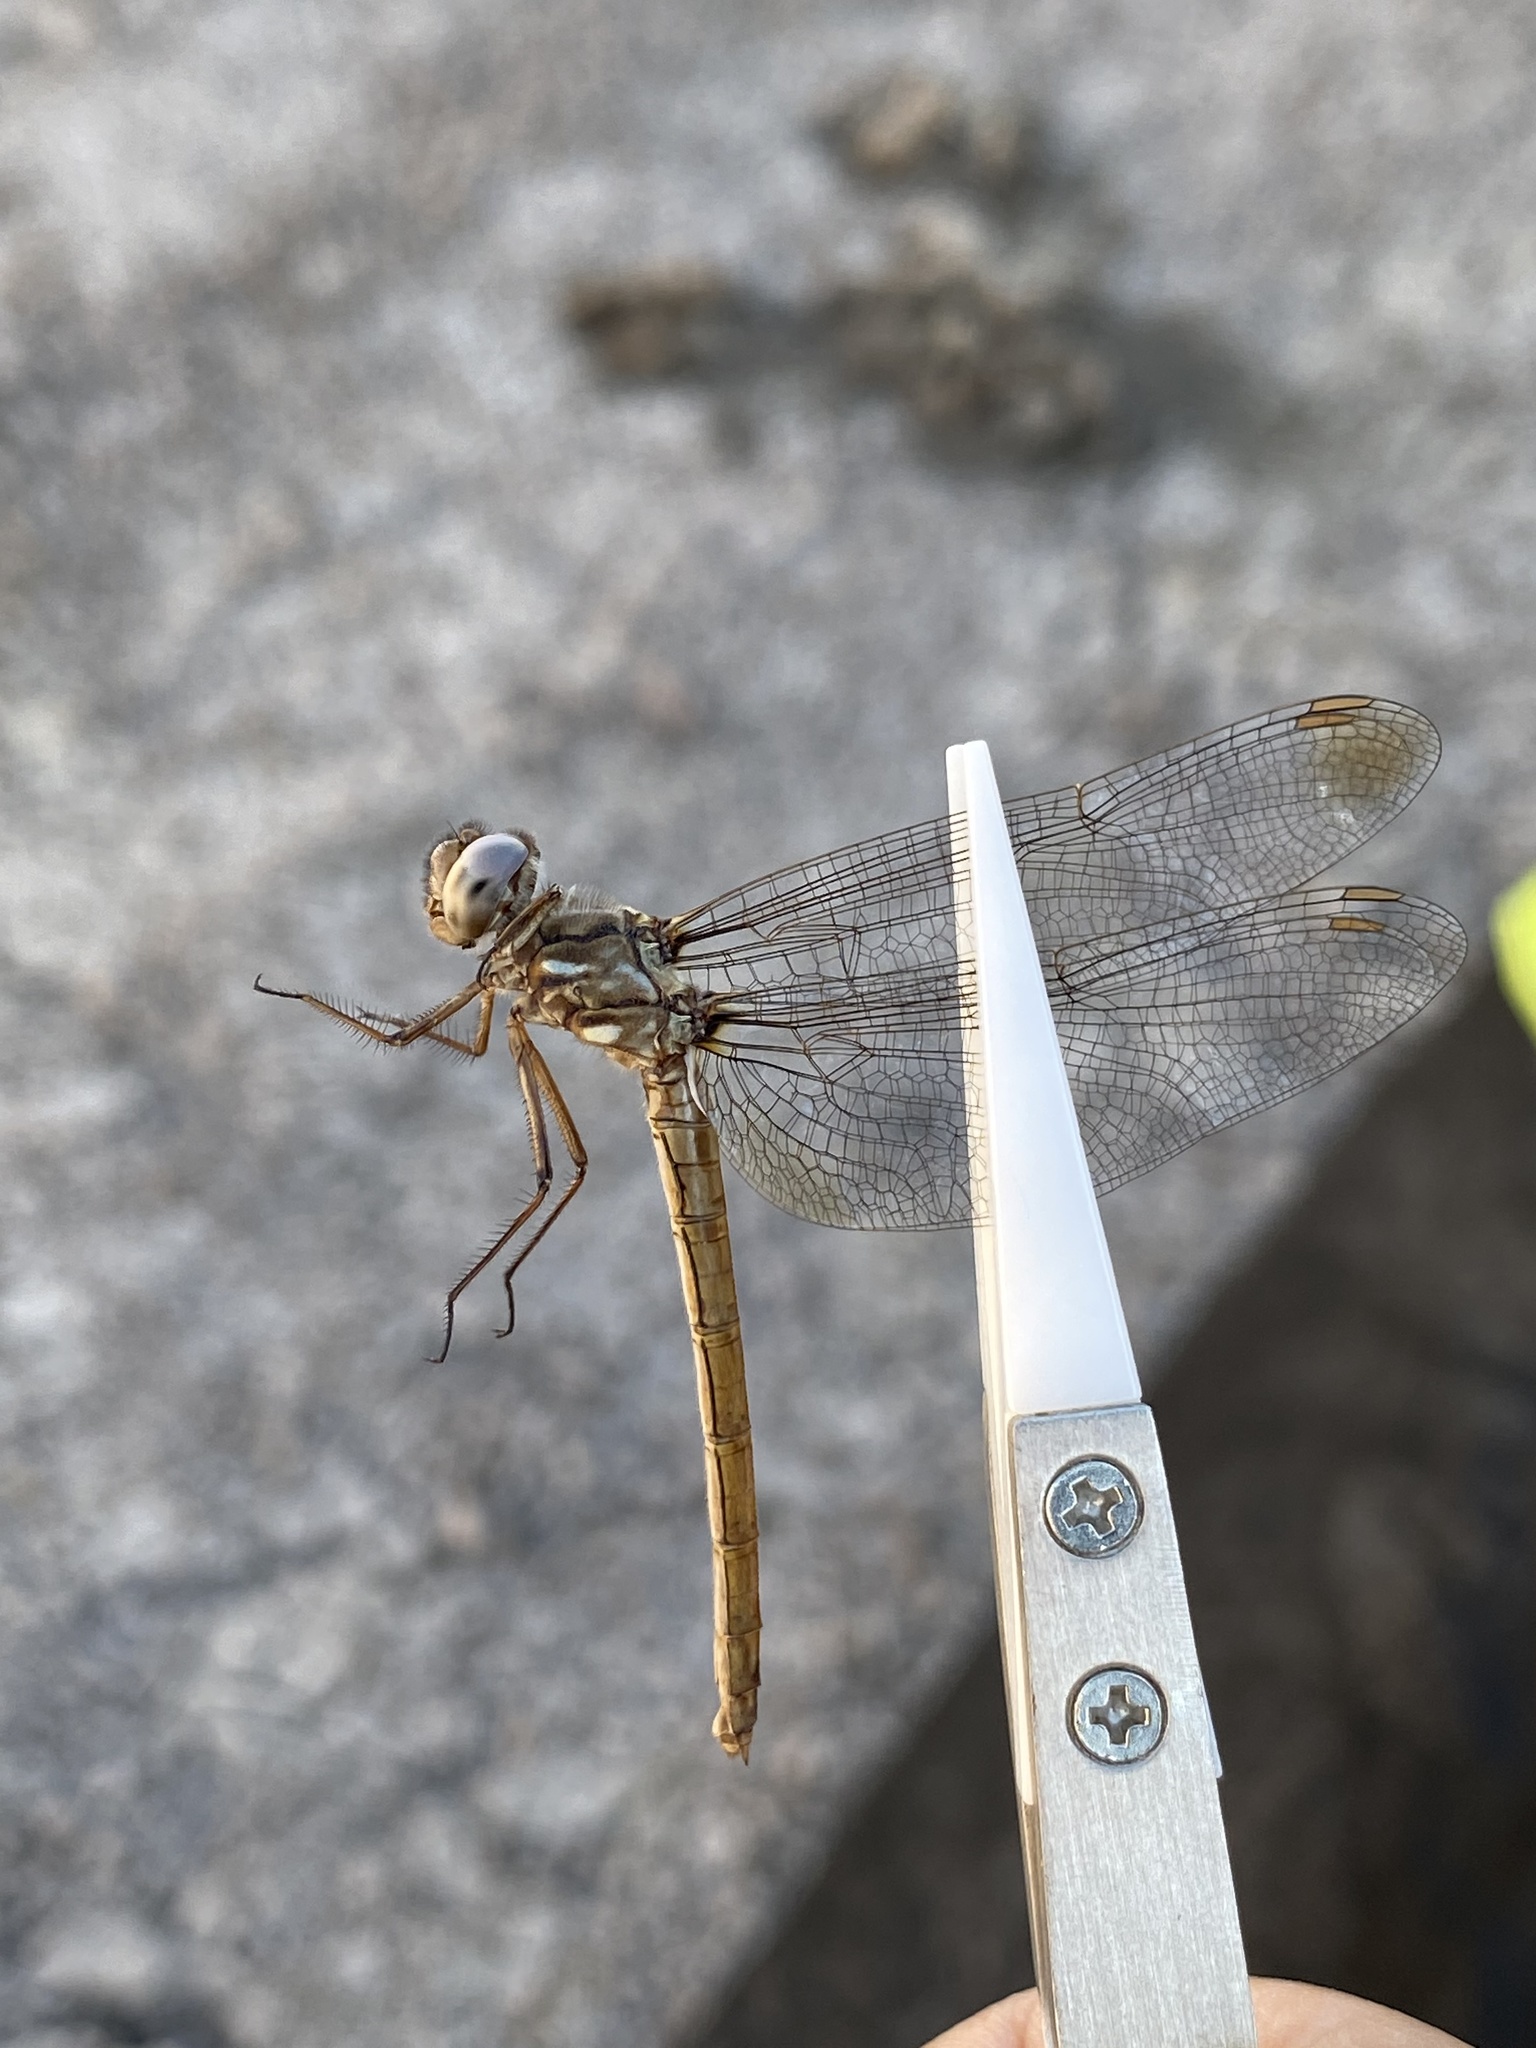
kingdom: Animalia
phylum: Arthropoda
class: Insecta
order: Odonata
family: Libellulidae
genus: Macrothemis
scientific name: Macrothemis inacuta
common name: Straw-colored sylph
